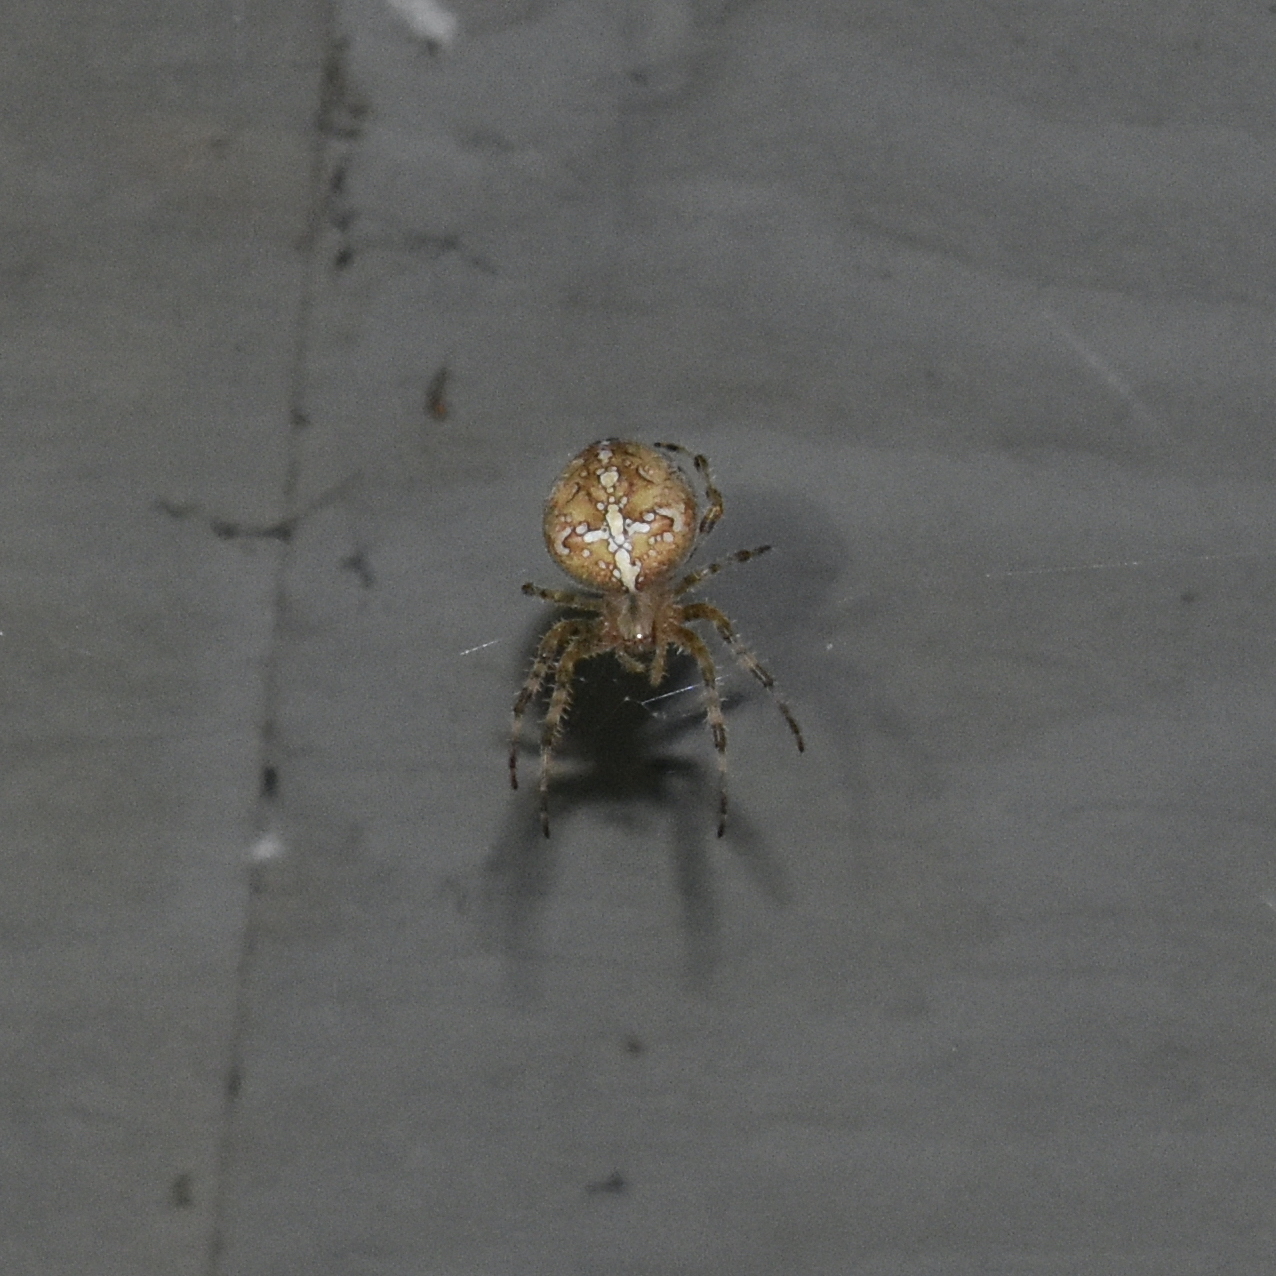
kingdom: Animalia
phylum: Arthropoda
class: Arachnida
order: Araneae
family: Araneidae
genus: Araneus
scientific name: Araneus diadematus
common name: Cross orbweaver
